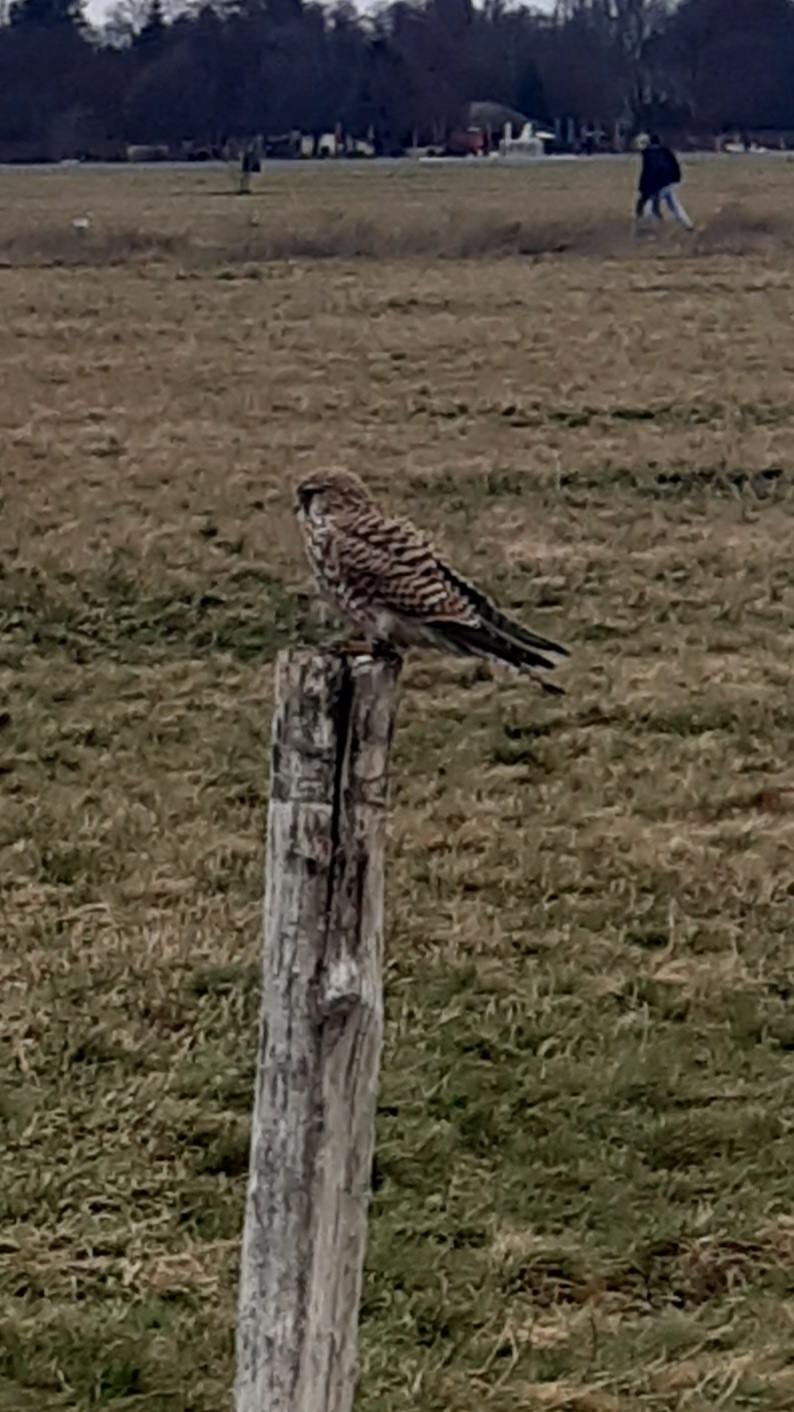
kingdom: Animalia
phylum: Chordata
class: Aves
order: Falconiformes
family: Falconidae
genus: Falco
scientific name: Falco tinnunculus
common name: Common kestrel
